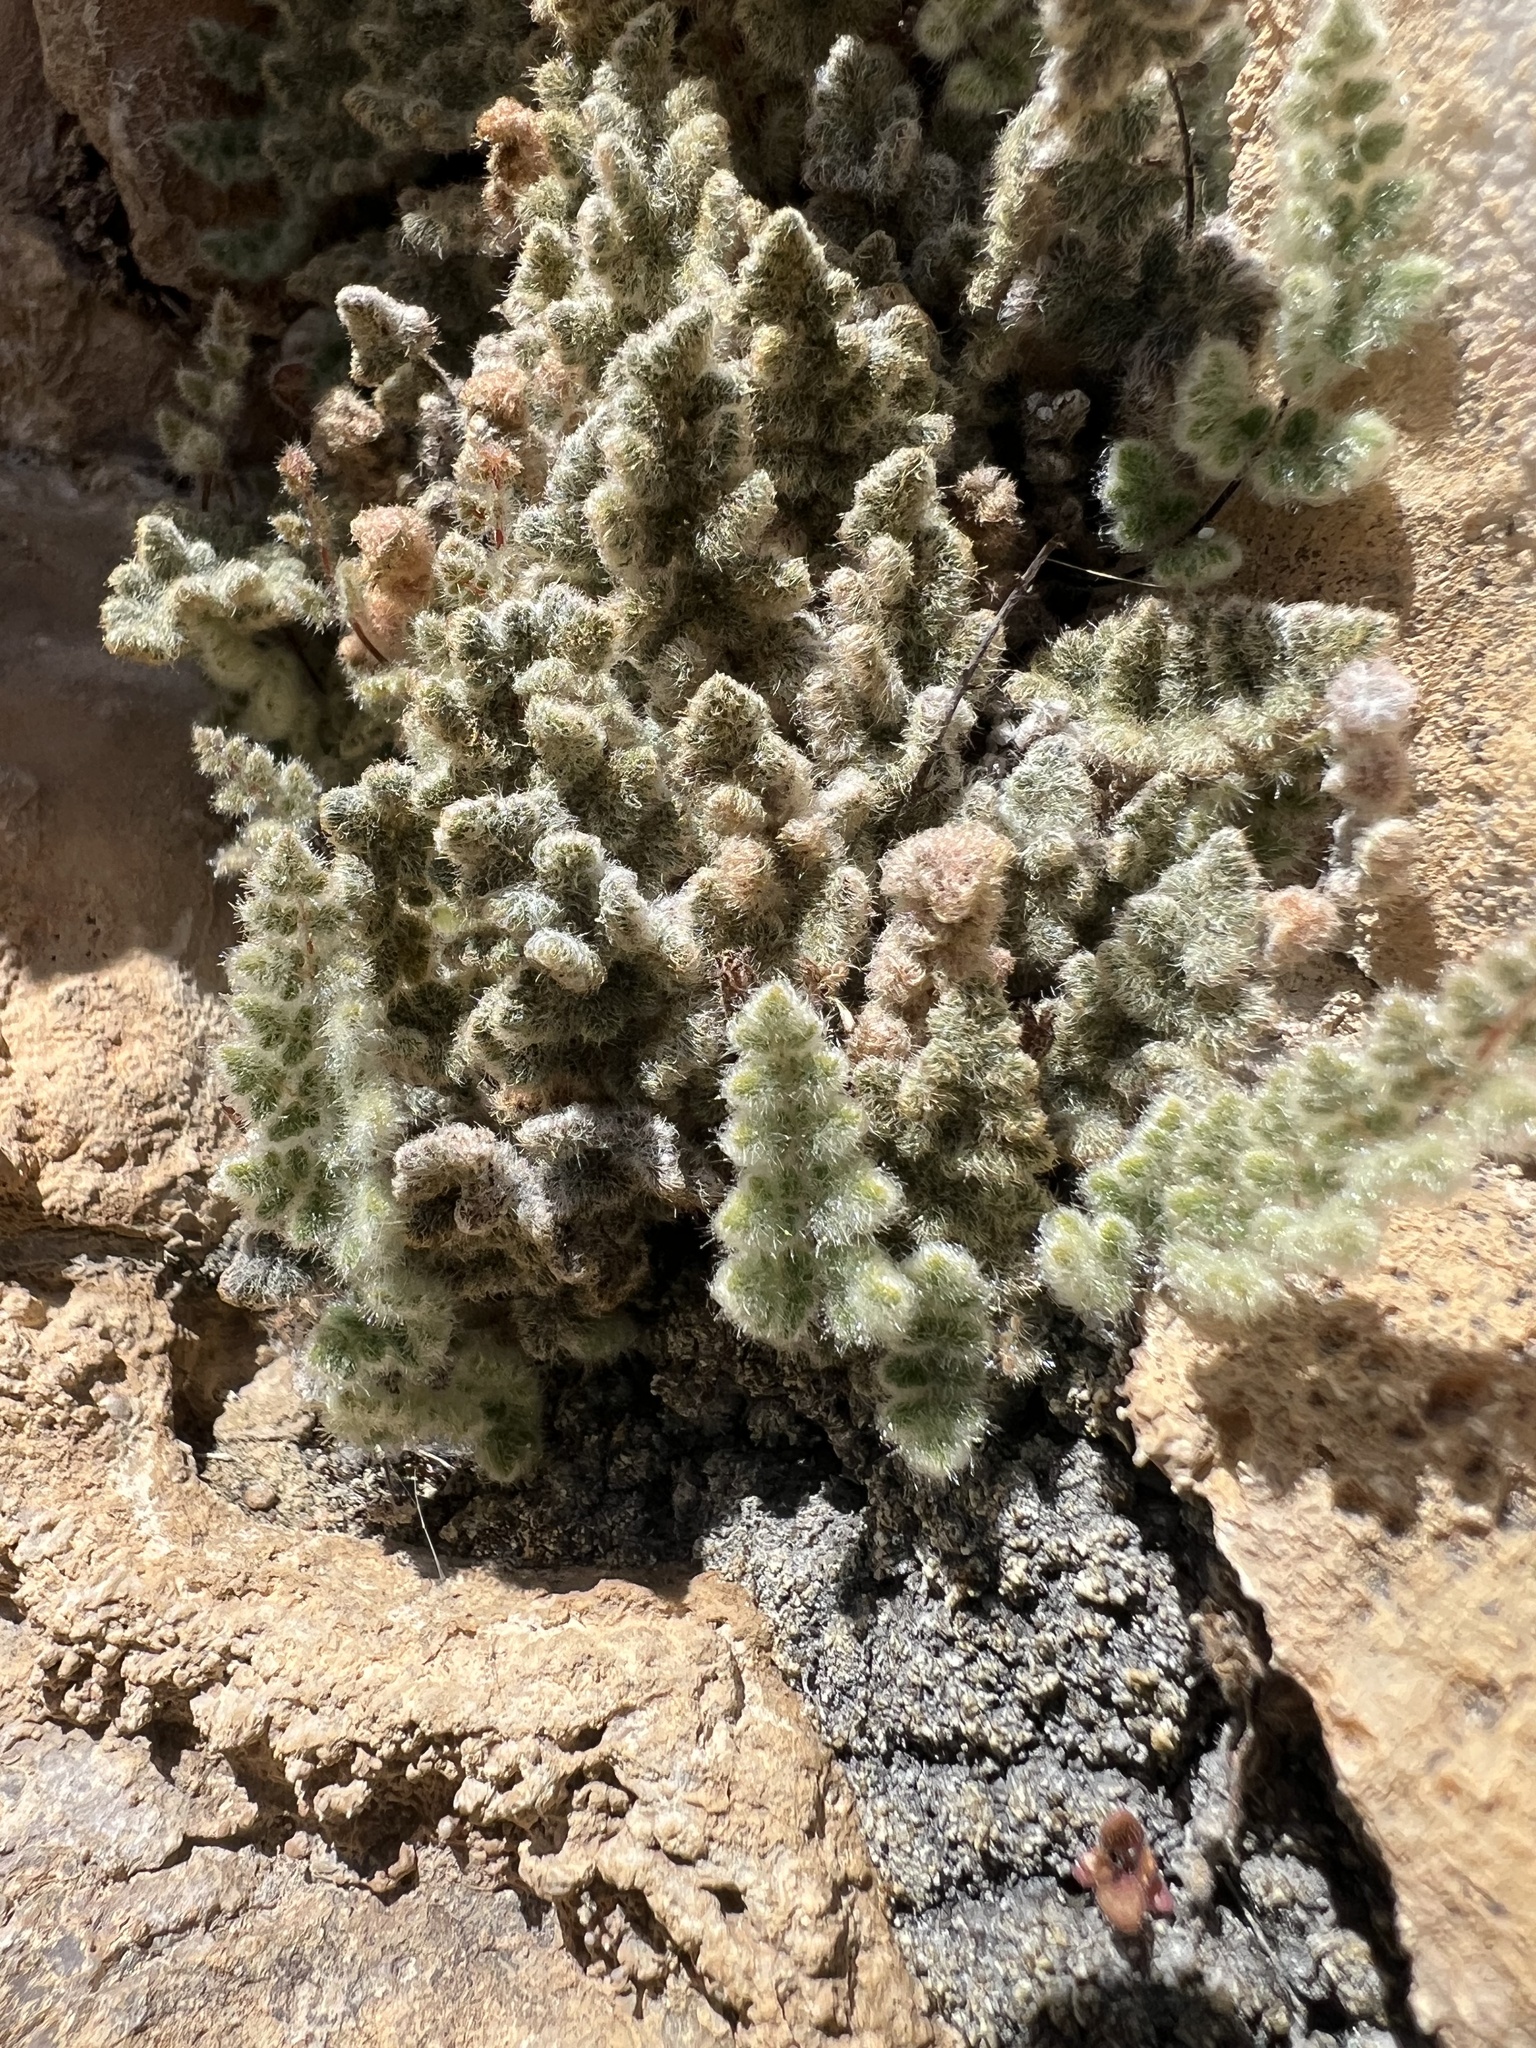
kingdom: Plantae
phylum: Tracheophyta
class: Polypodiopsida
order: Polypodiales
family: Pteridaceae
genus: Myriopteris
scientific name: Myriopteris parryi
